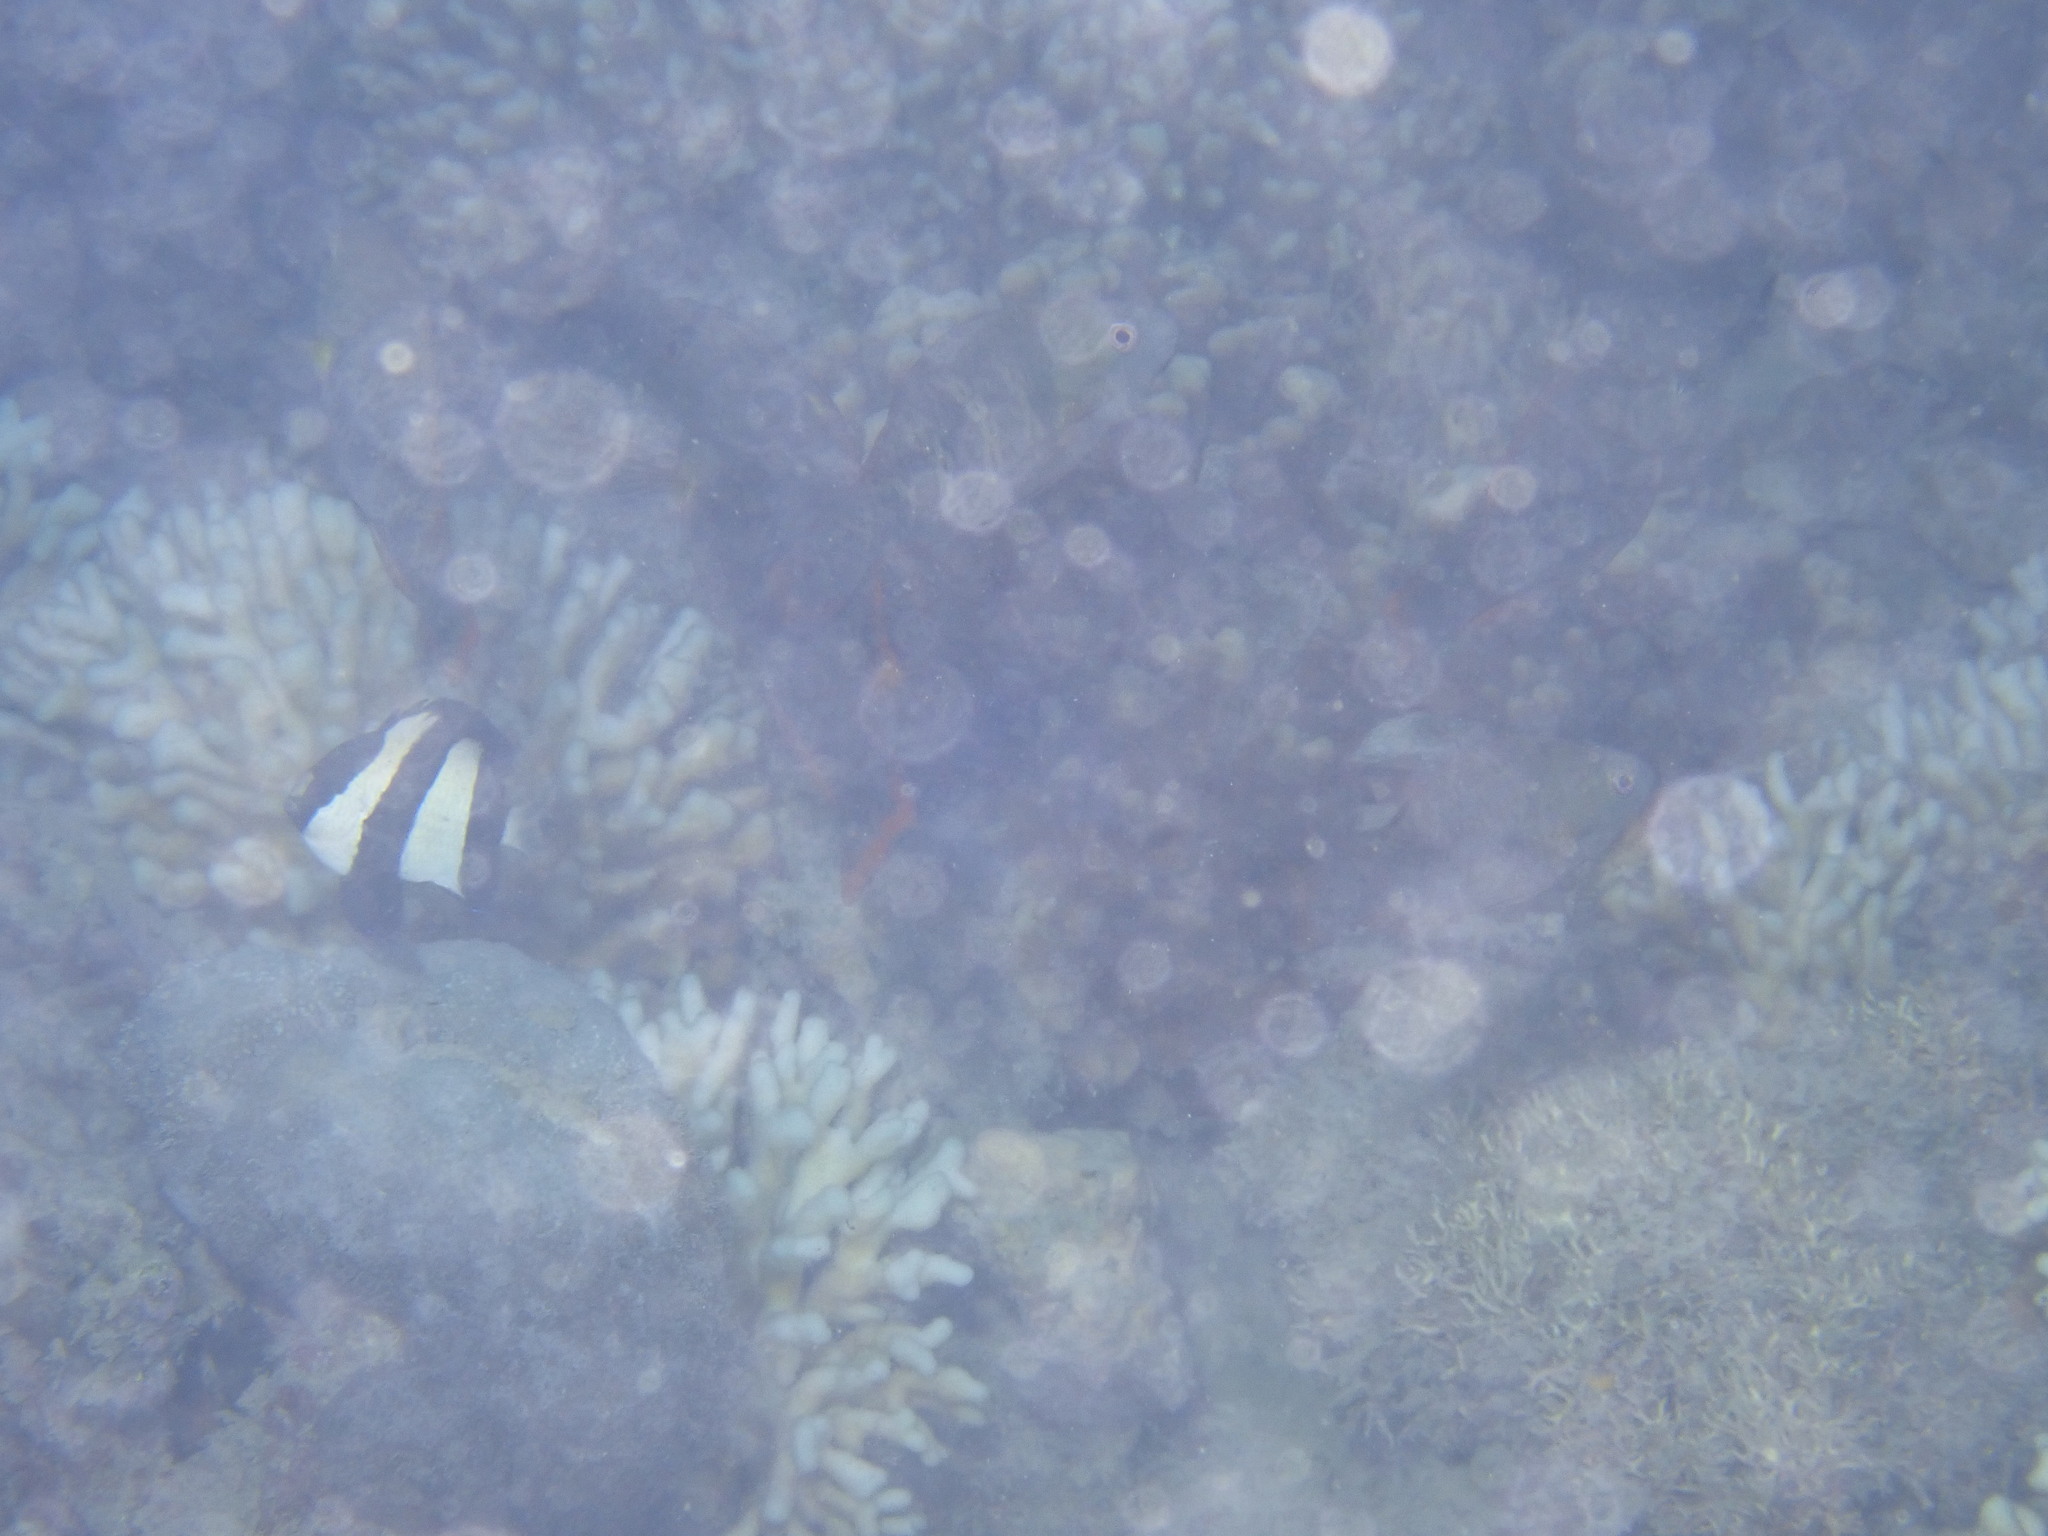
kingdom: Animalia
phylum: Chordata
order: Perciformes
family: Pomacentridae
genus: Dascyllus
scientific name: Dascyllus aruanus
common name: Humbug dascyllus
